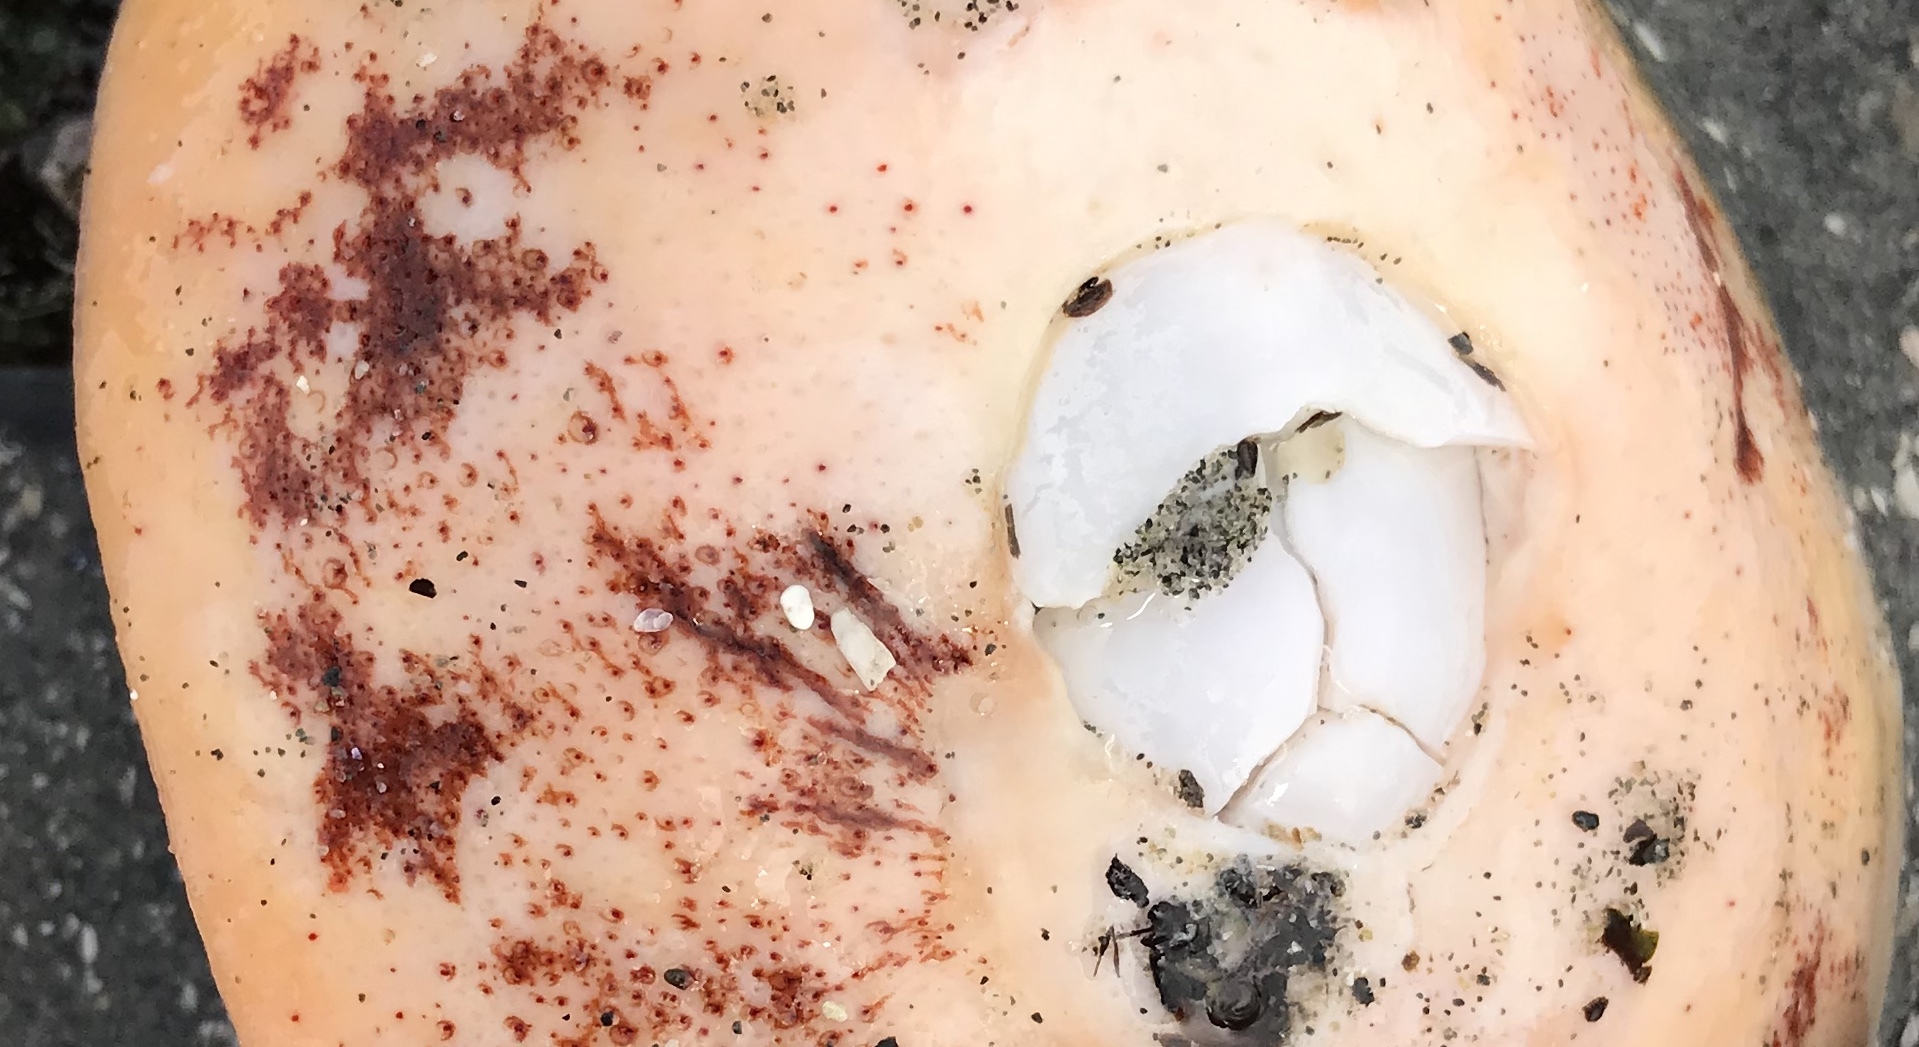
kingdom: Animalia
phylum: Mollusca
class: Polyplacophora
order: Chitonida
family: Acanthochitonidae
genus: Cryptochiton
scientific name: Cryptochiton stelleri
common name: Giant pacific chiton
